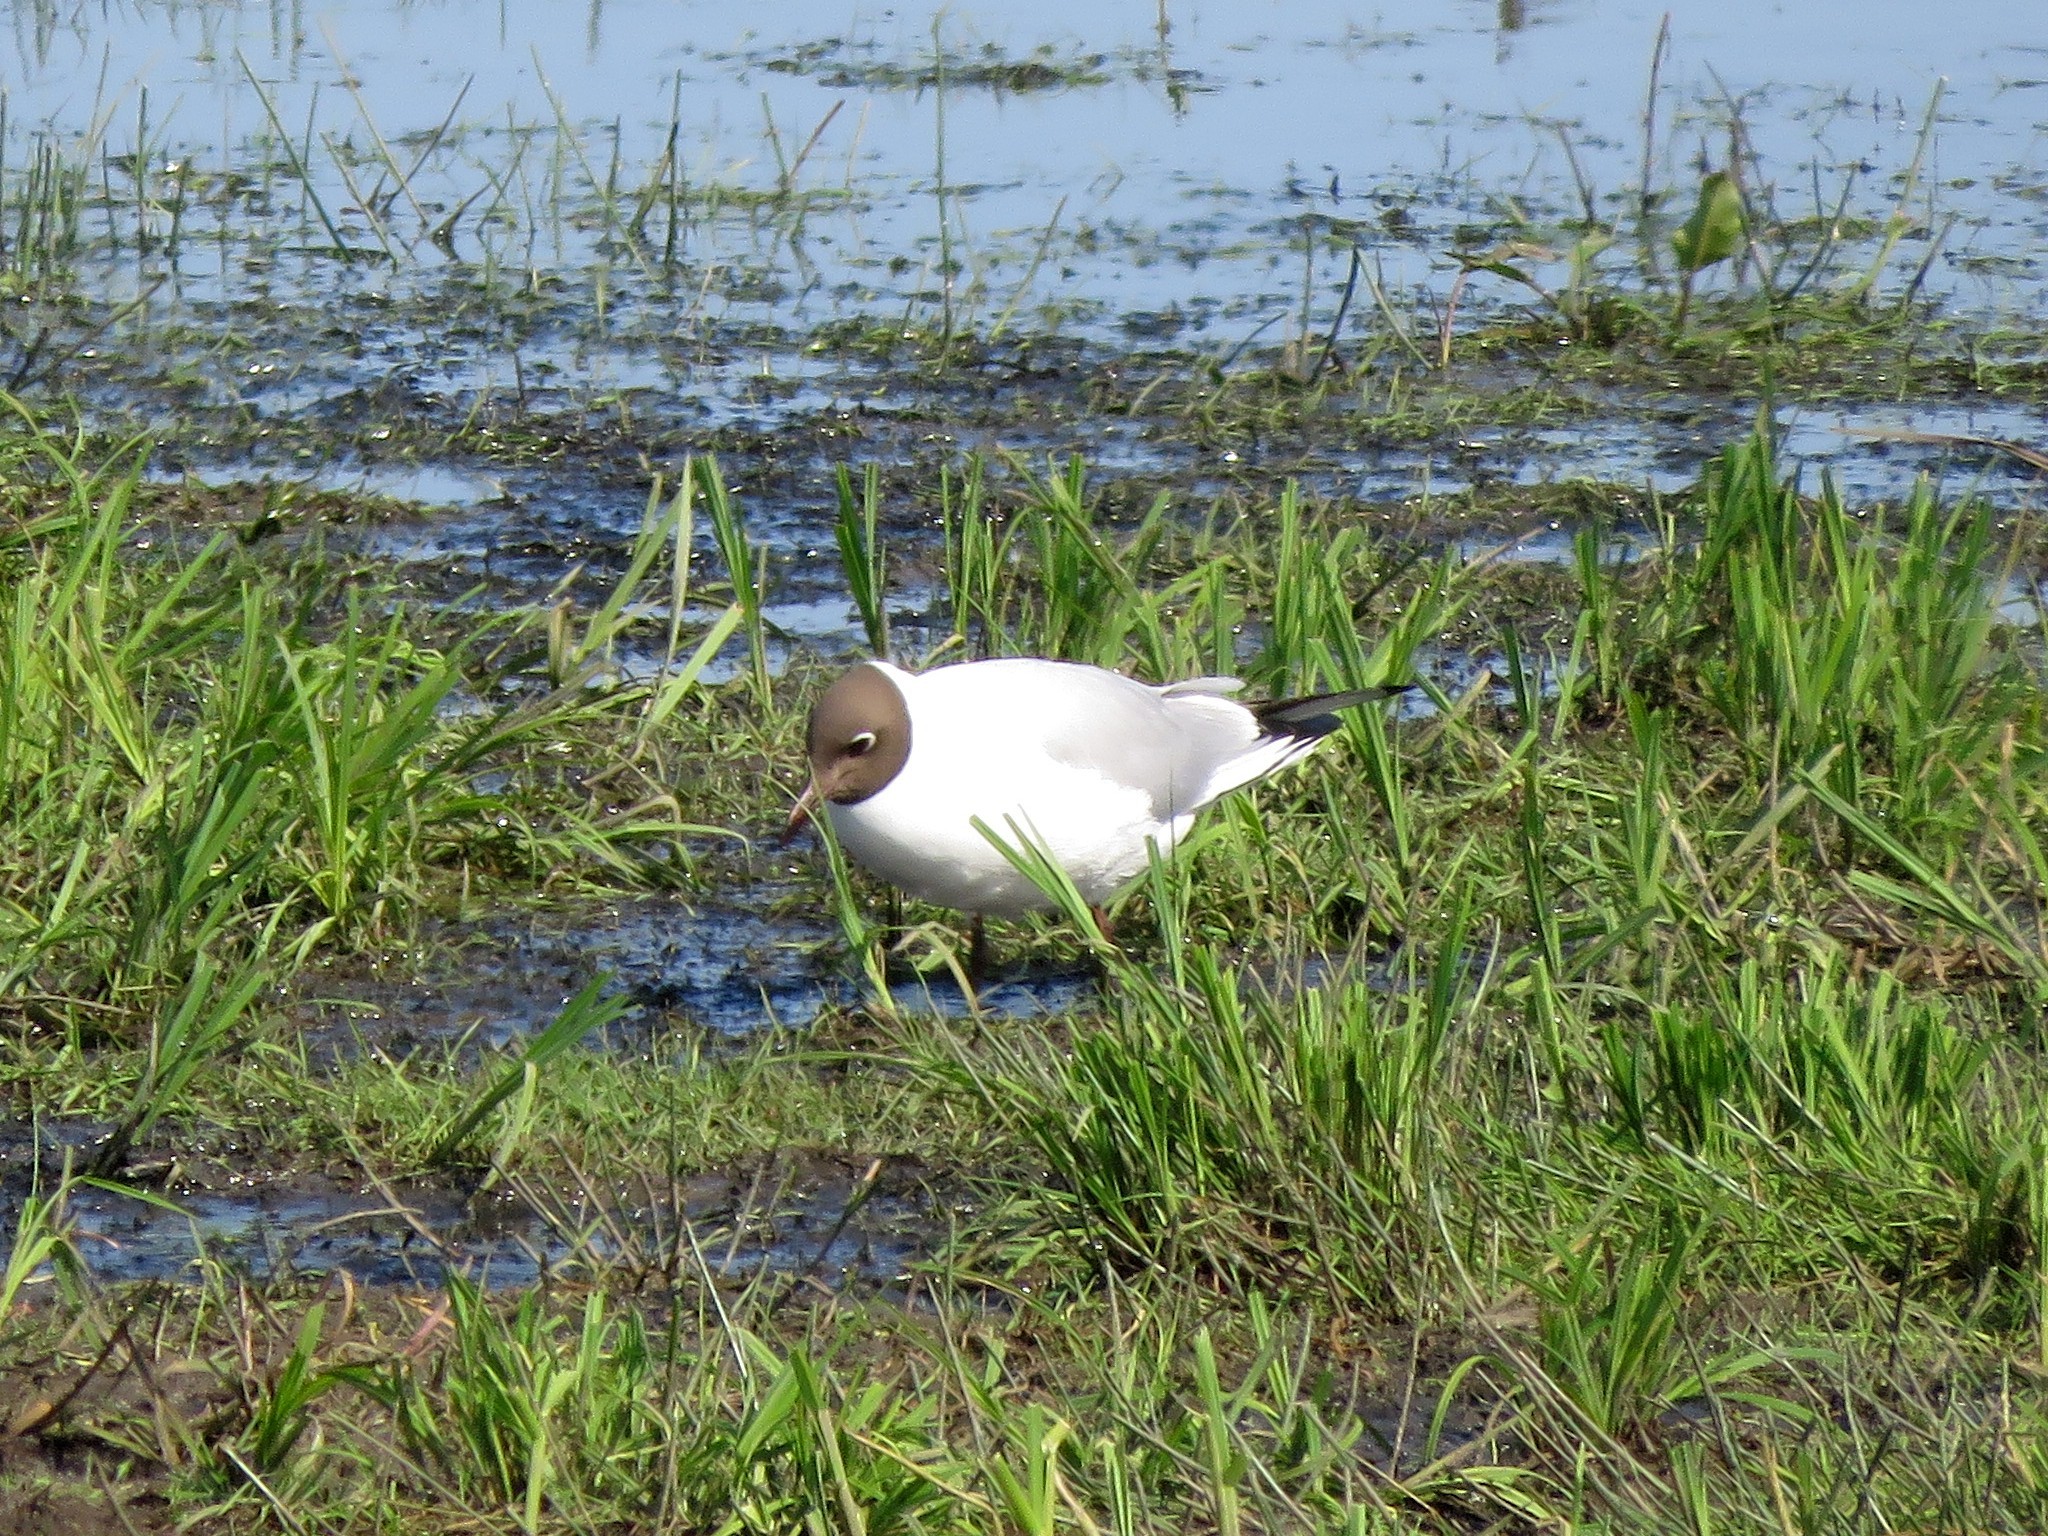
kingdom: Animalia
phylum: Chordata
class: Aves
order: Charadriiformes
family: Laridae
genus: Chroicocephalus
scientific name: Chroicocephalus ridibundus
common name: Black-headed gull
